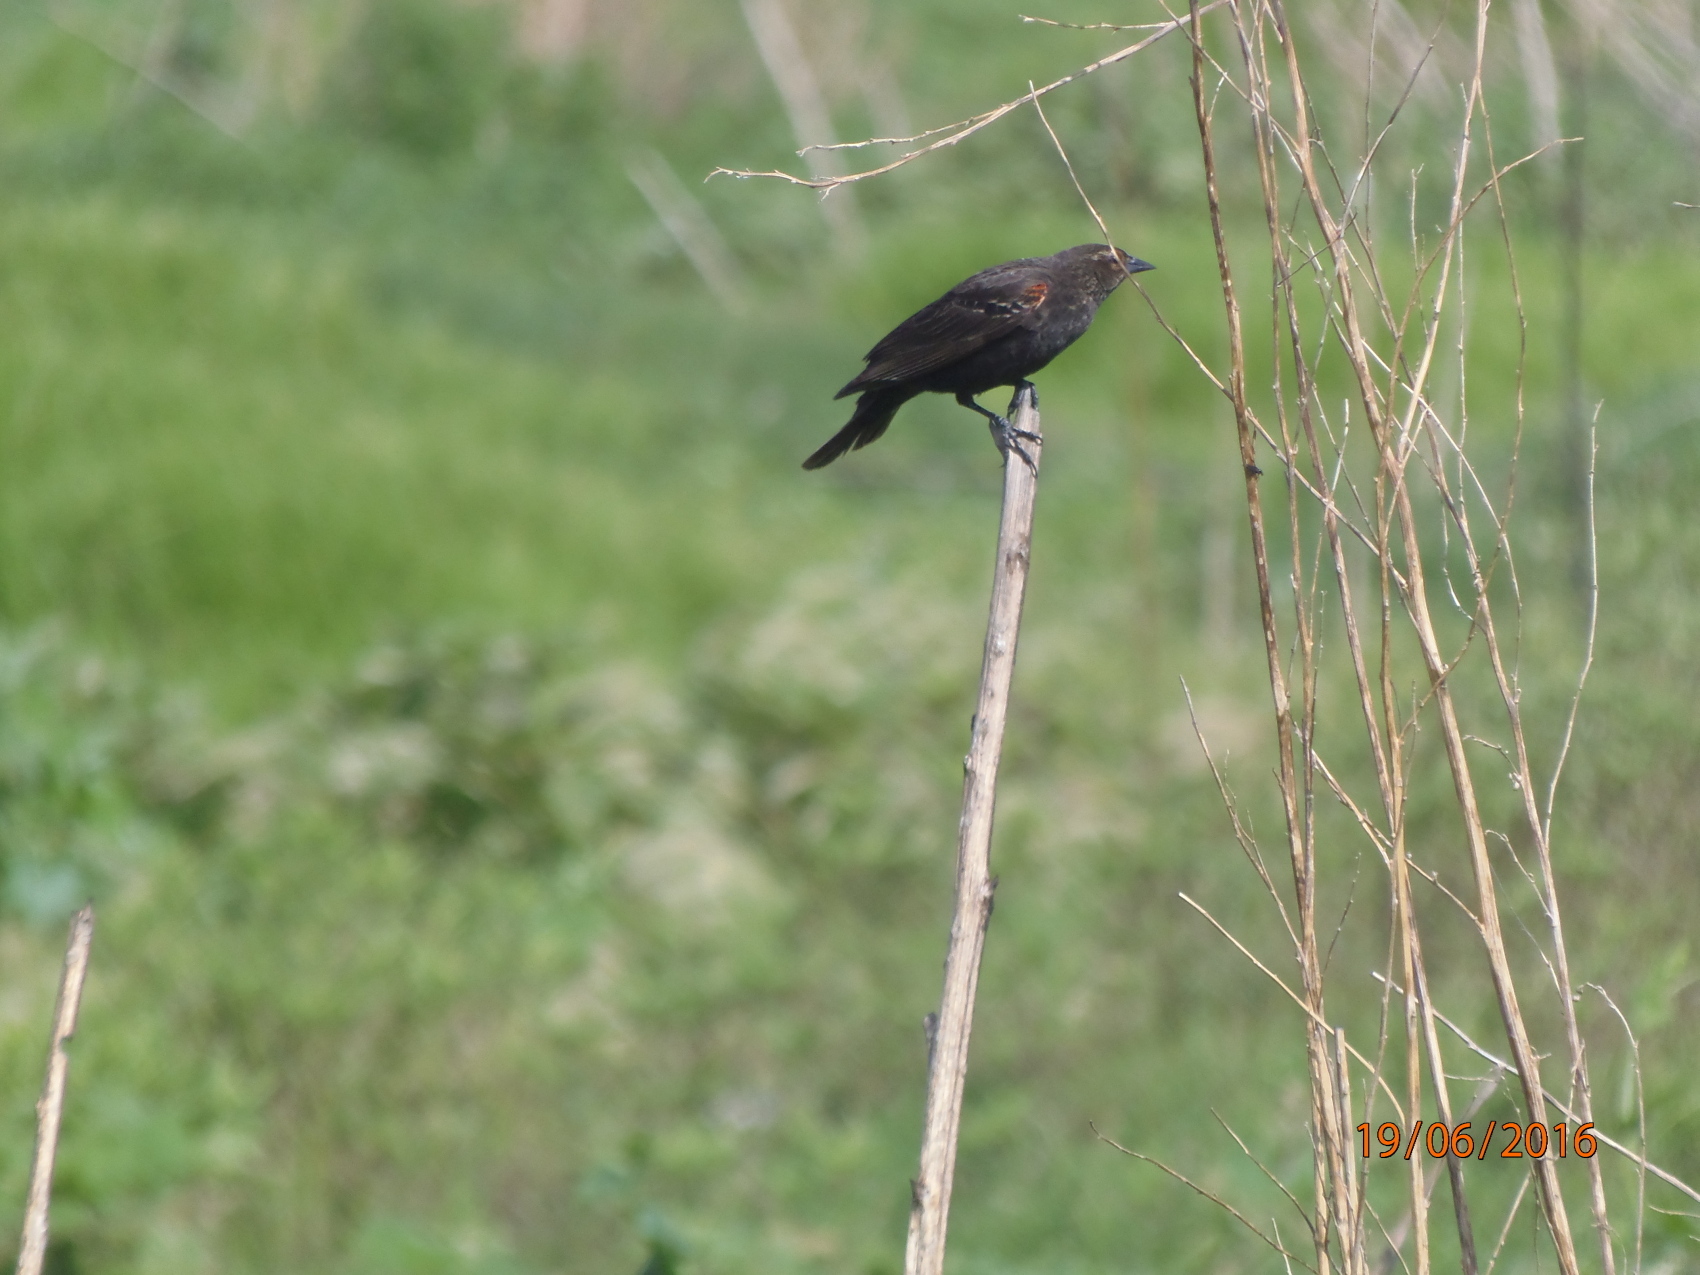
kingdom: Animalia
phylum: Chordata
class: Aves
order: Passeriformes
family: Icteridae
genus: Agelaius
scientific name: Agelaius phoeniceus
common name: Red-winged blackbird
